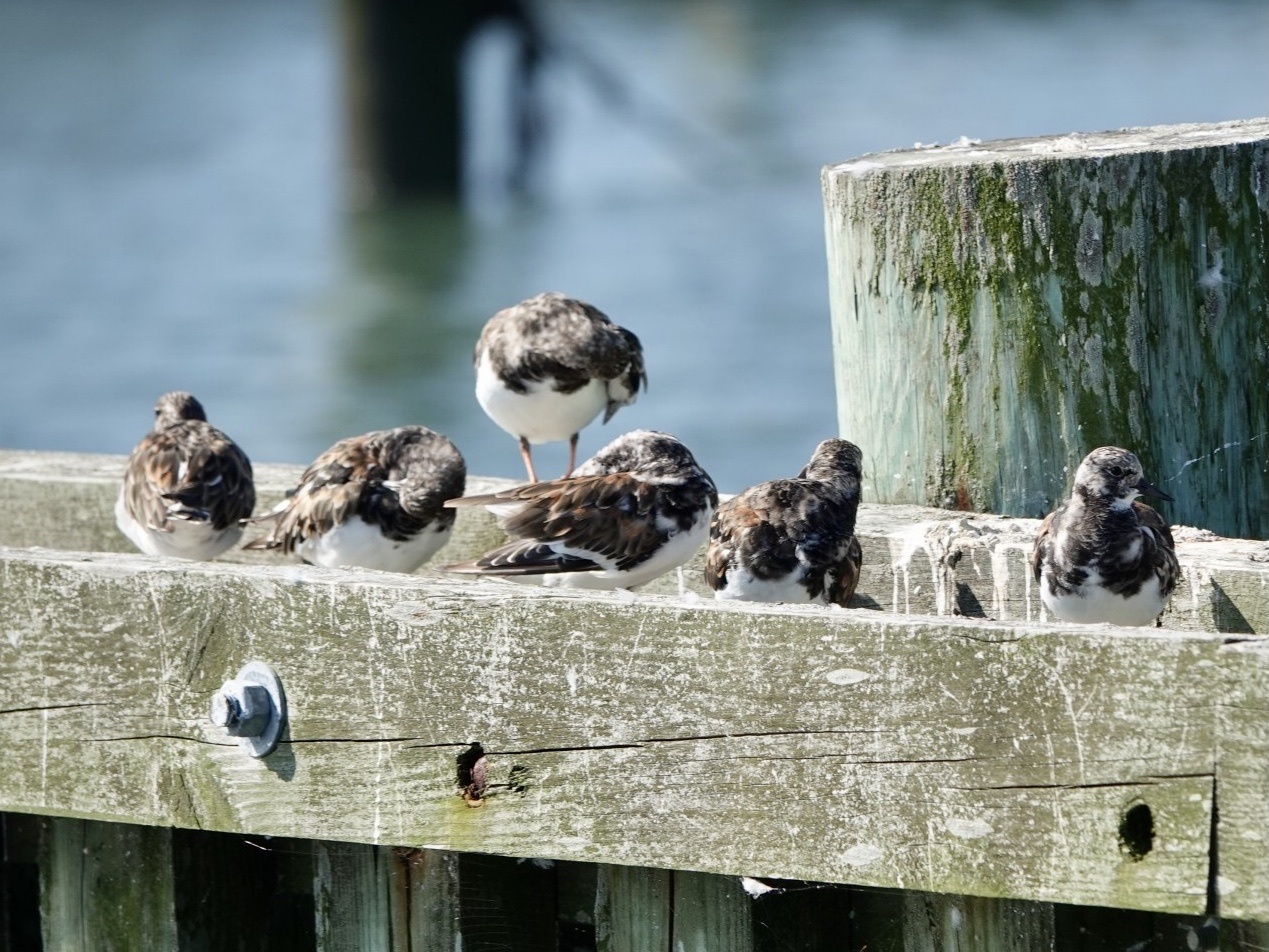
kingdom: Animalia
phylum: Chordata
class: Aves
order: Charadriiformes
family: Scolopacidae
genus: Arenaria
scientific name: Arenaria interpres
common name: Ruddy turnstone
